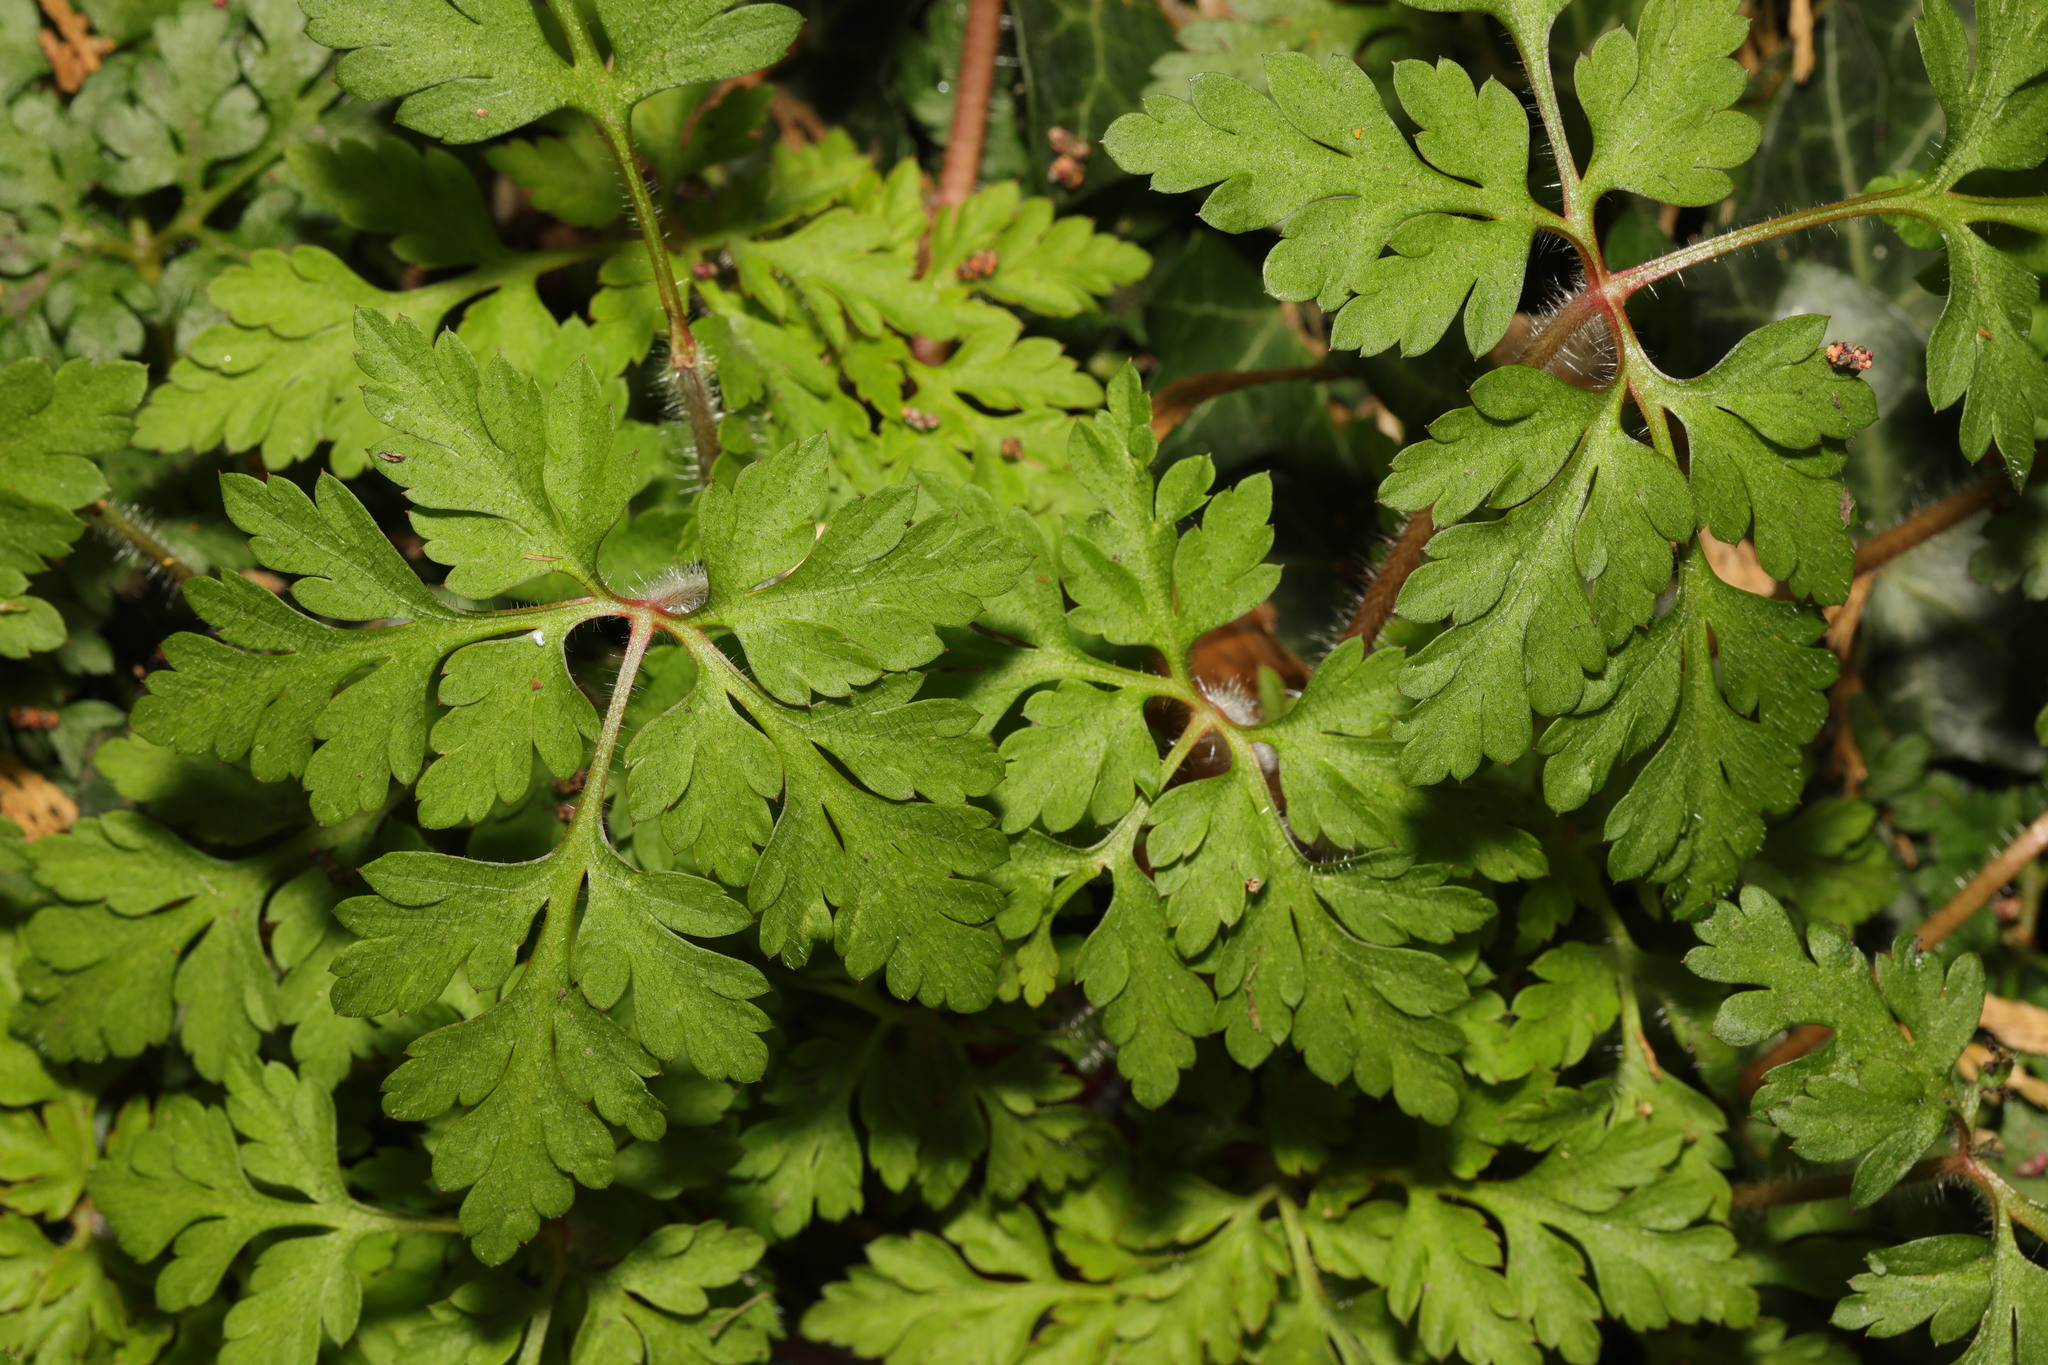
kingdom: Plantae
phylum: Tracheophyta
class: Magnoliopsida
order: Geraniales
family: Geraniaceae
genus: Geranium
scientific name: Geranium robertianum
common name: Herb-robert
